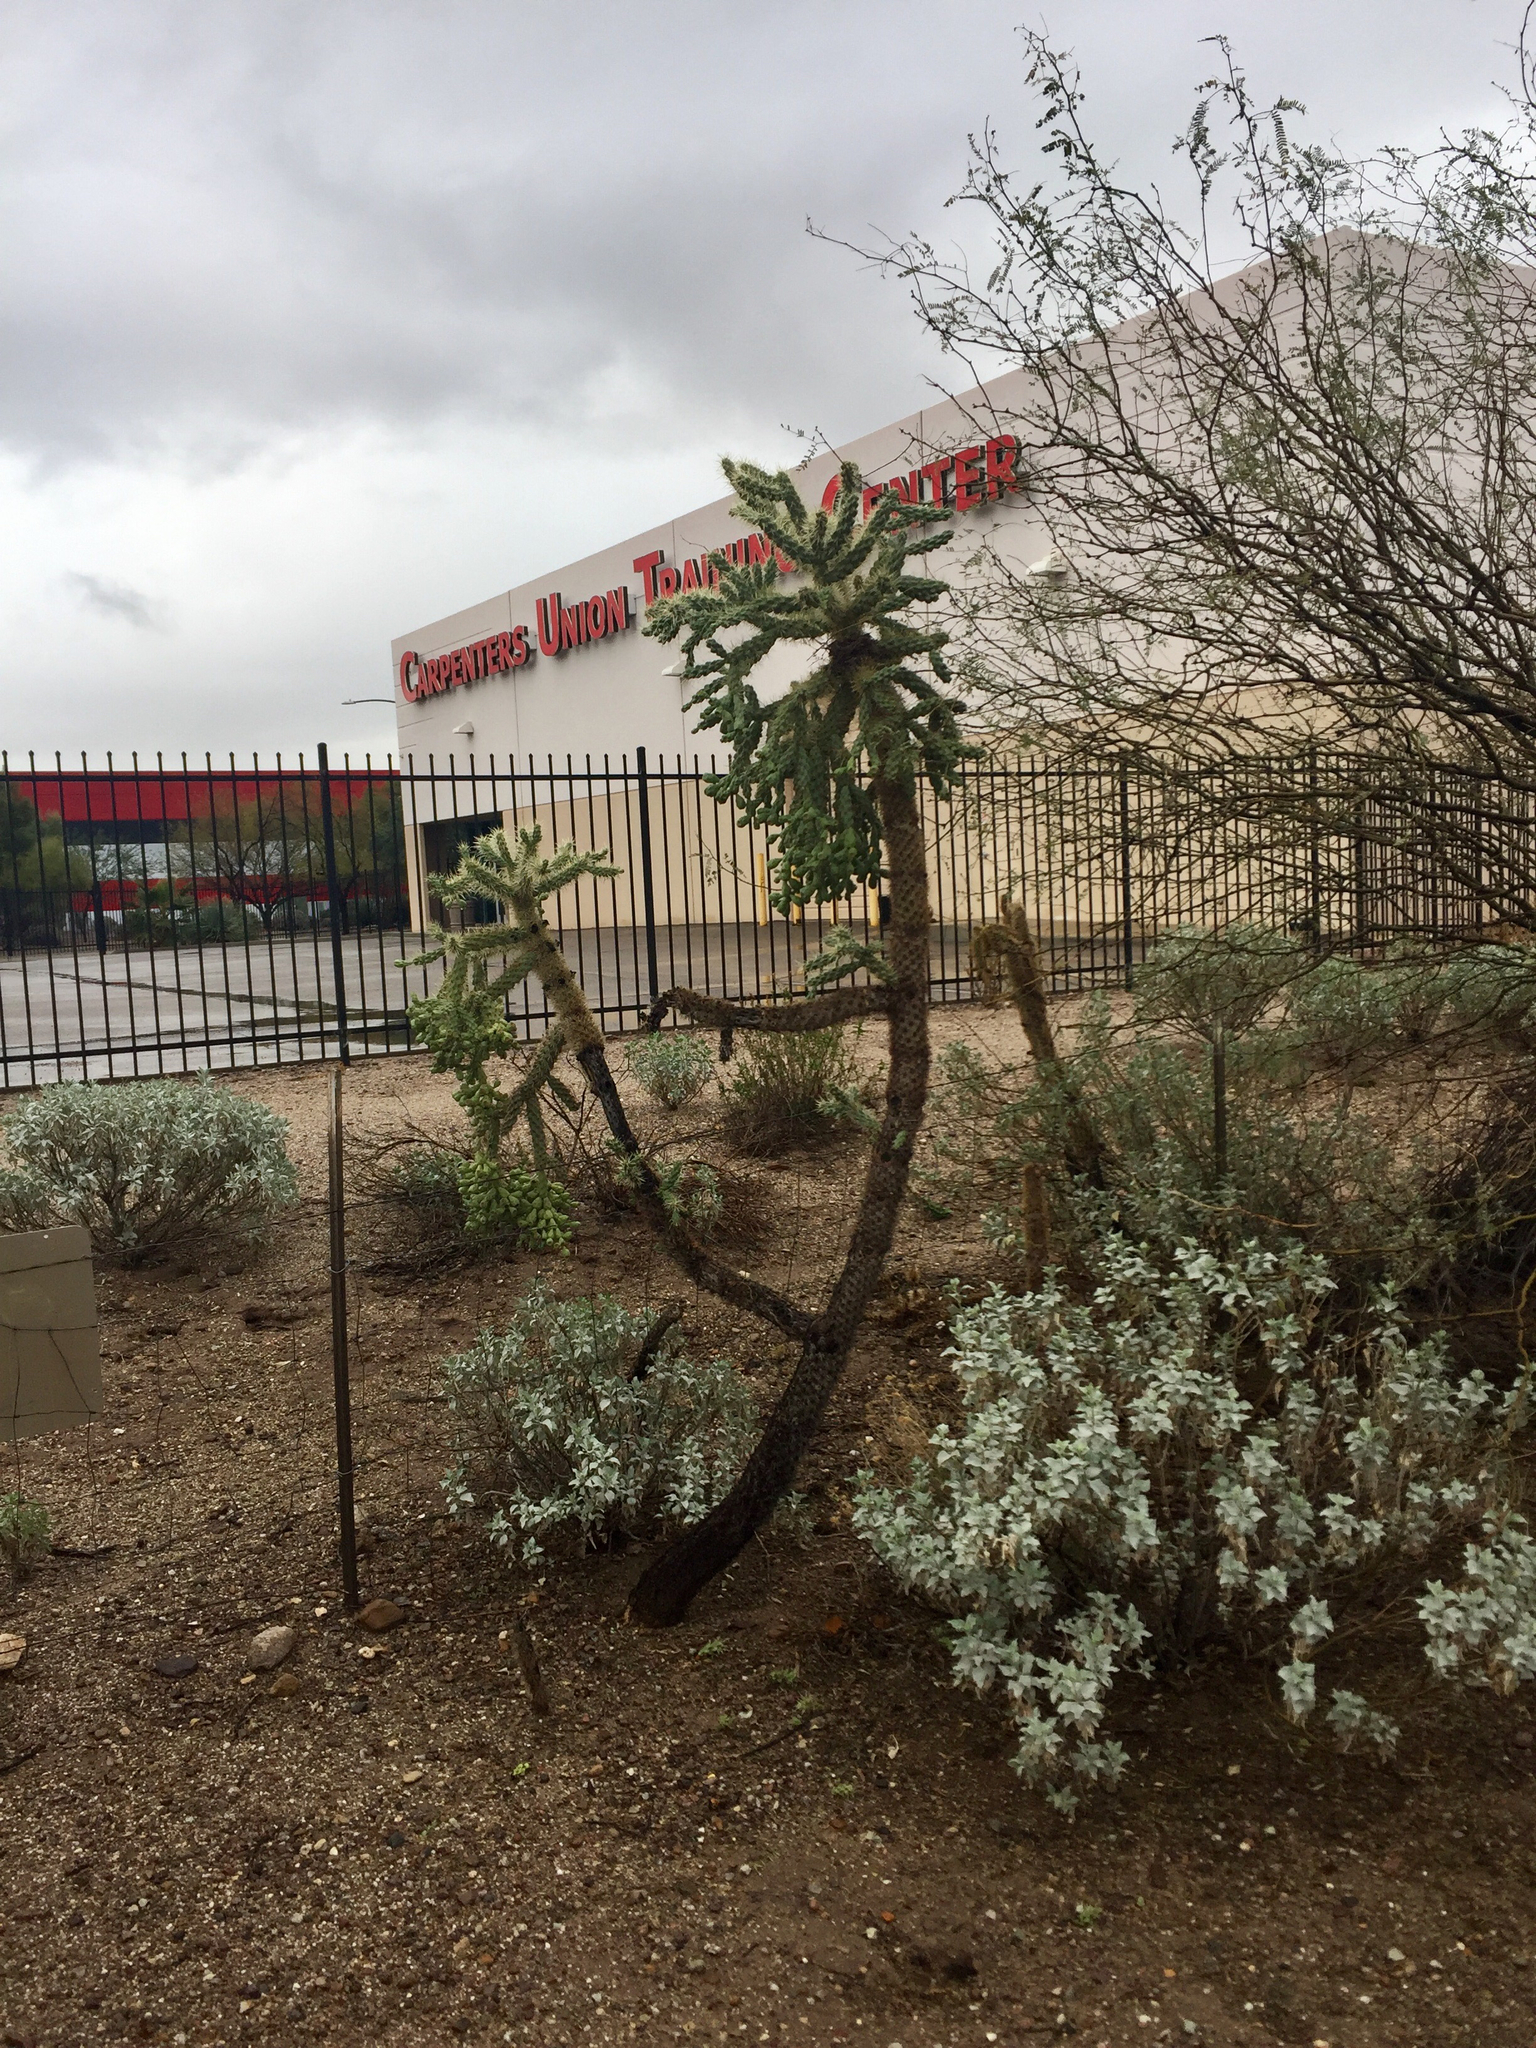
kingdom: Plantae
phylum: Tracheophyta
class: Magnoliopsida
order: Caryophyllales
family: Cactaceae
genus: Cylindropuntia
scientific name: Cylindropuntia fulgida
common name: Jumping cholla
